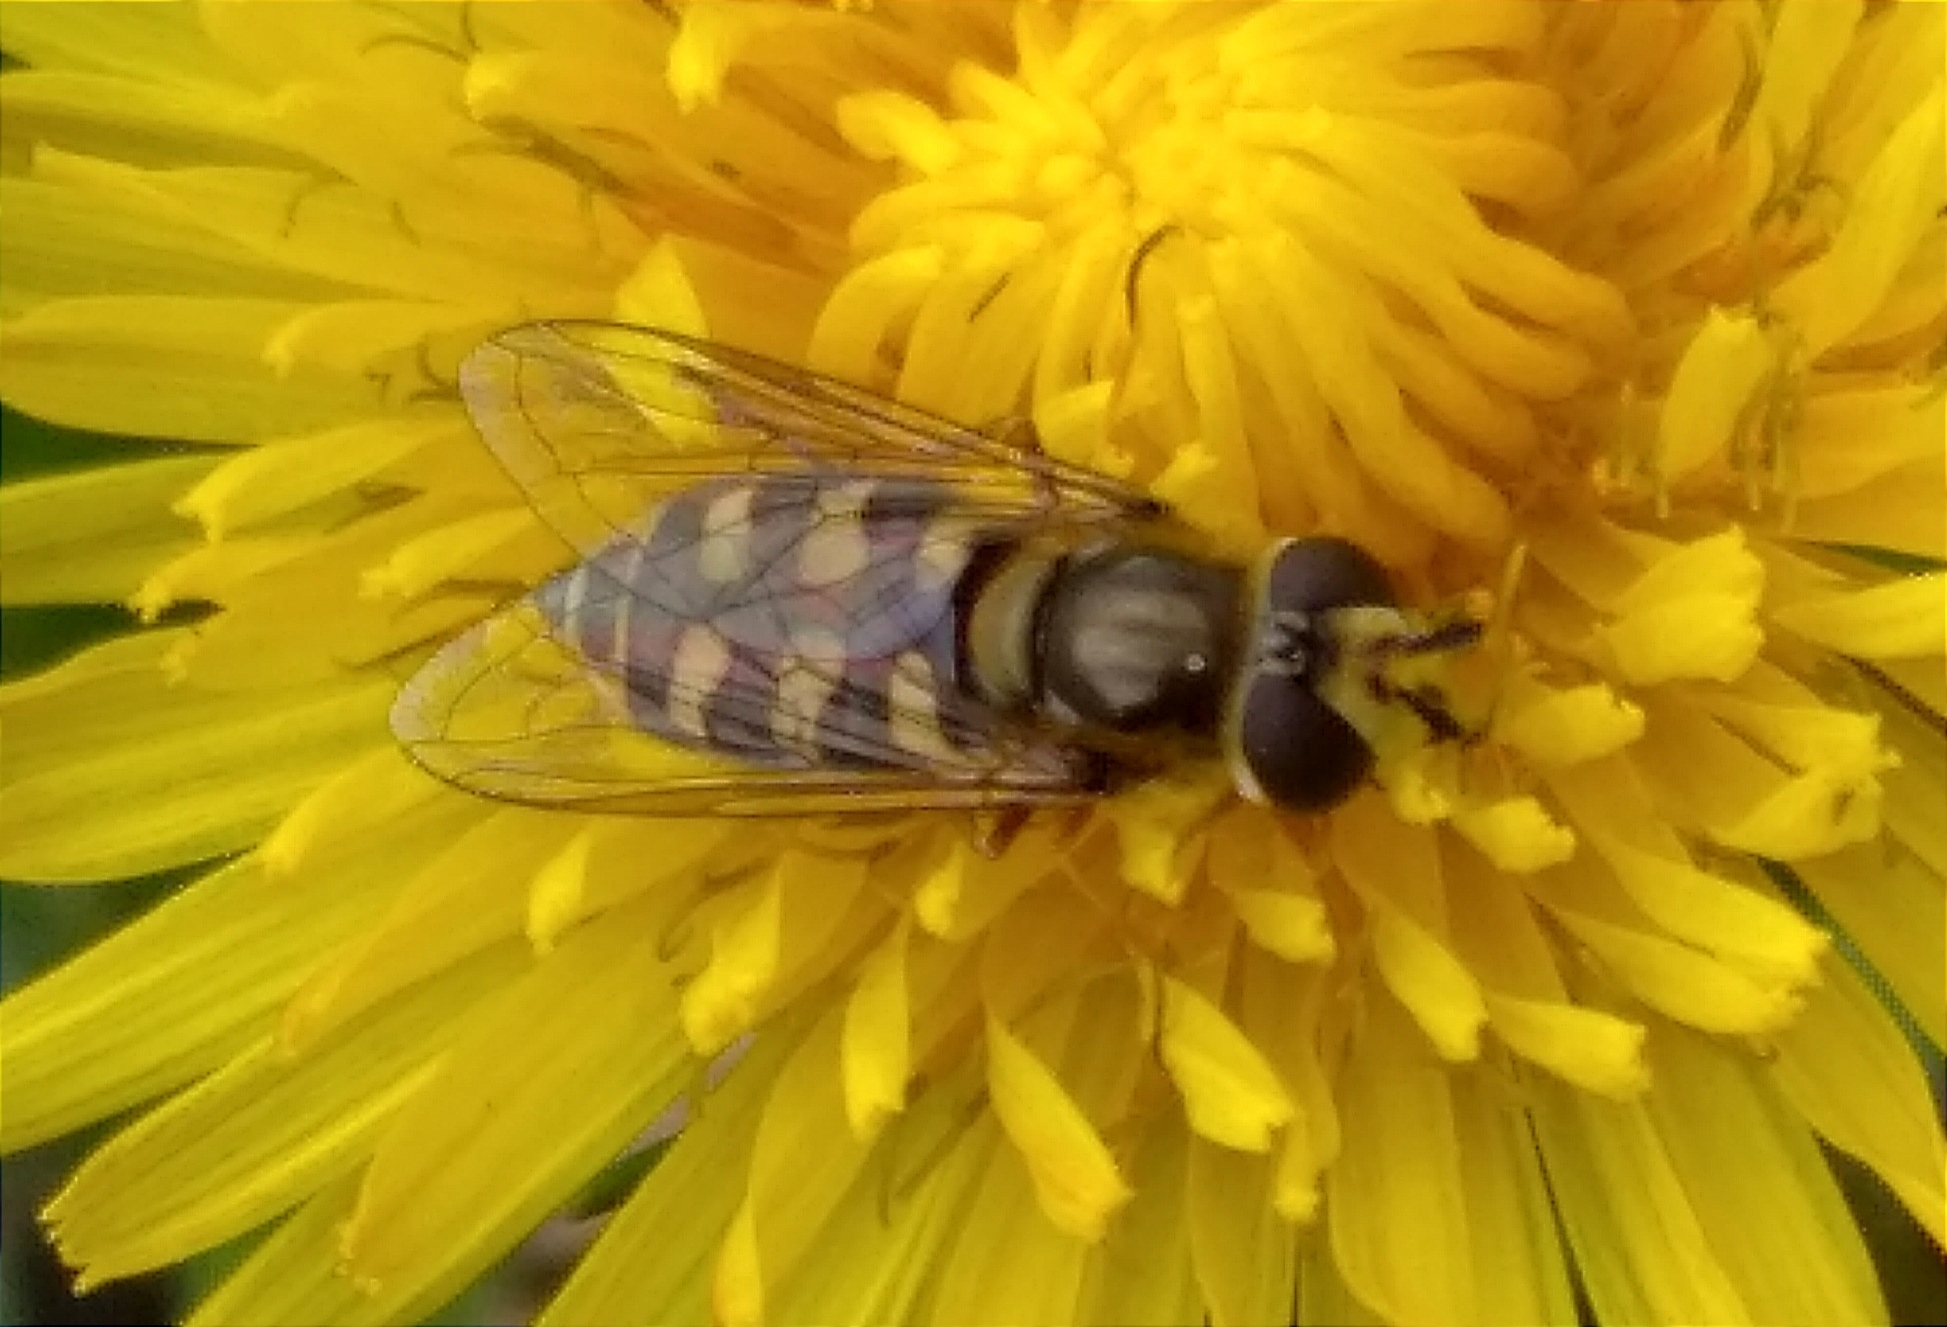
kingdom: Animalia
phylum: Arthropoda
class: Insecta
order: Diptera
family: Syrphidae
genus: Eupeodes
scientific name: Eupeodes corollae
